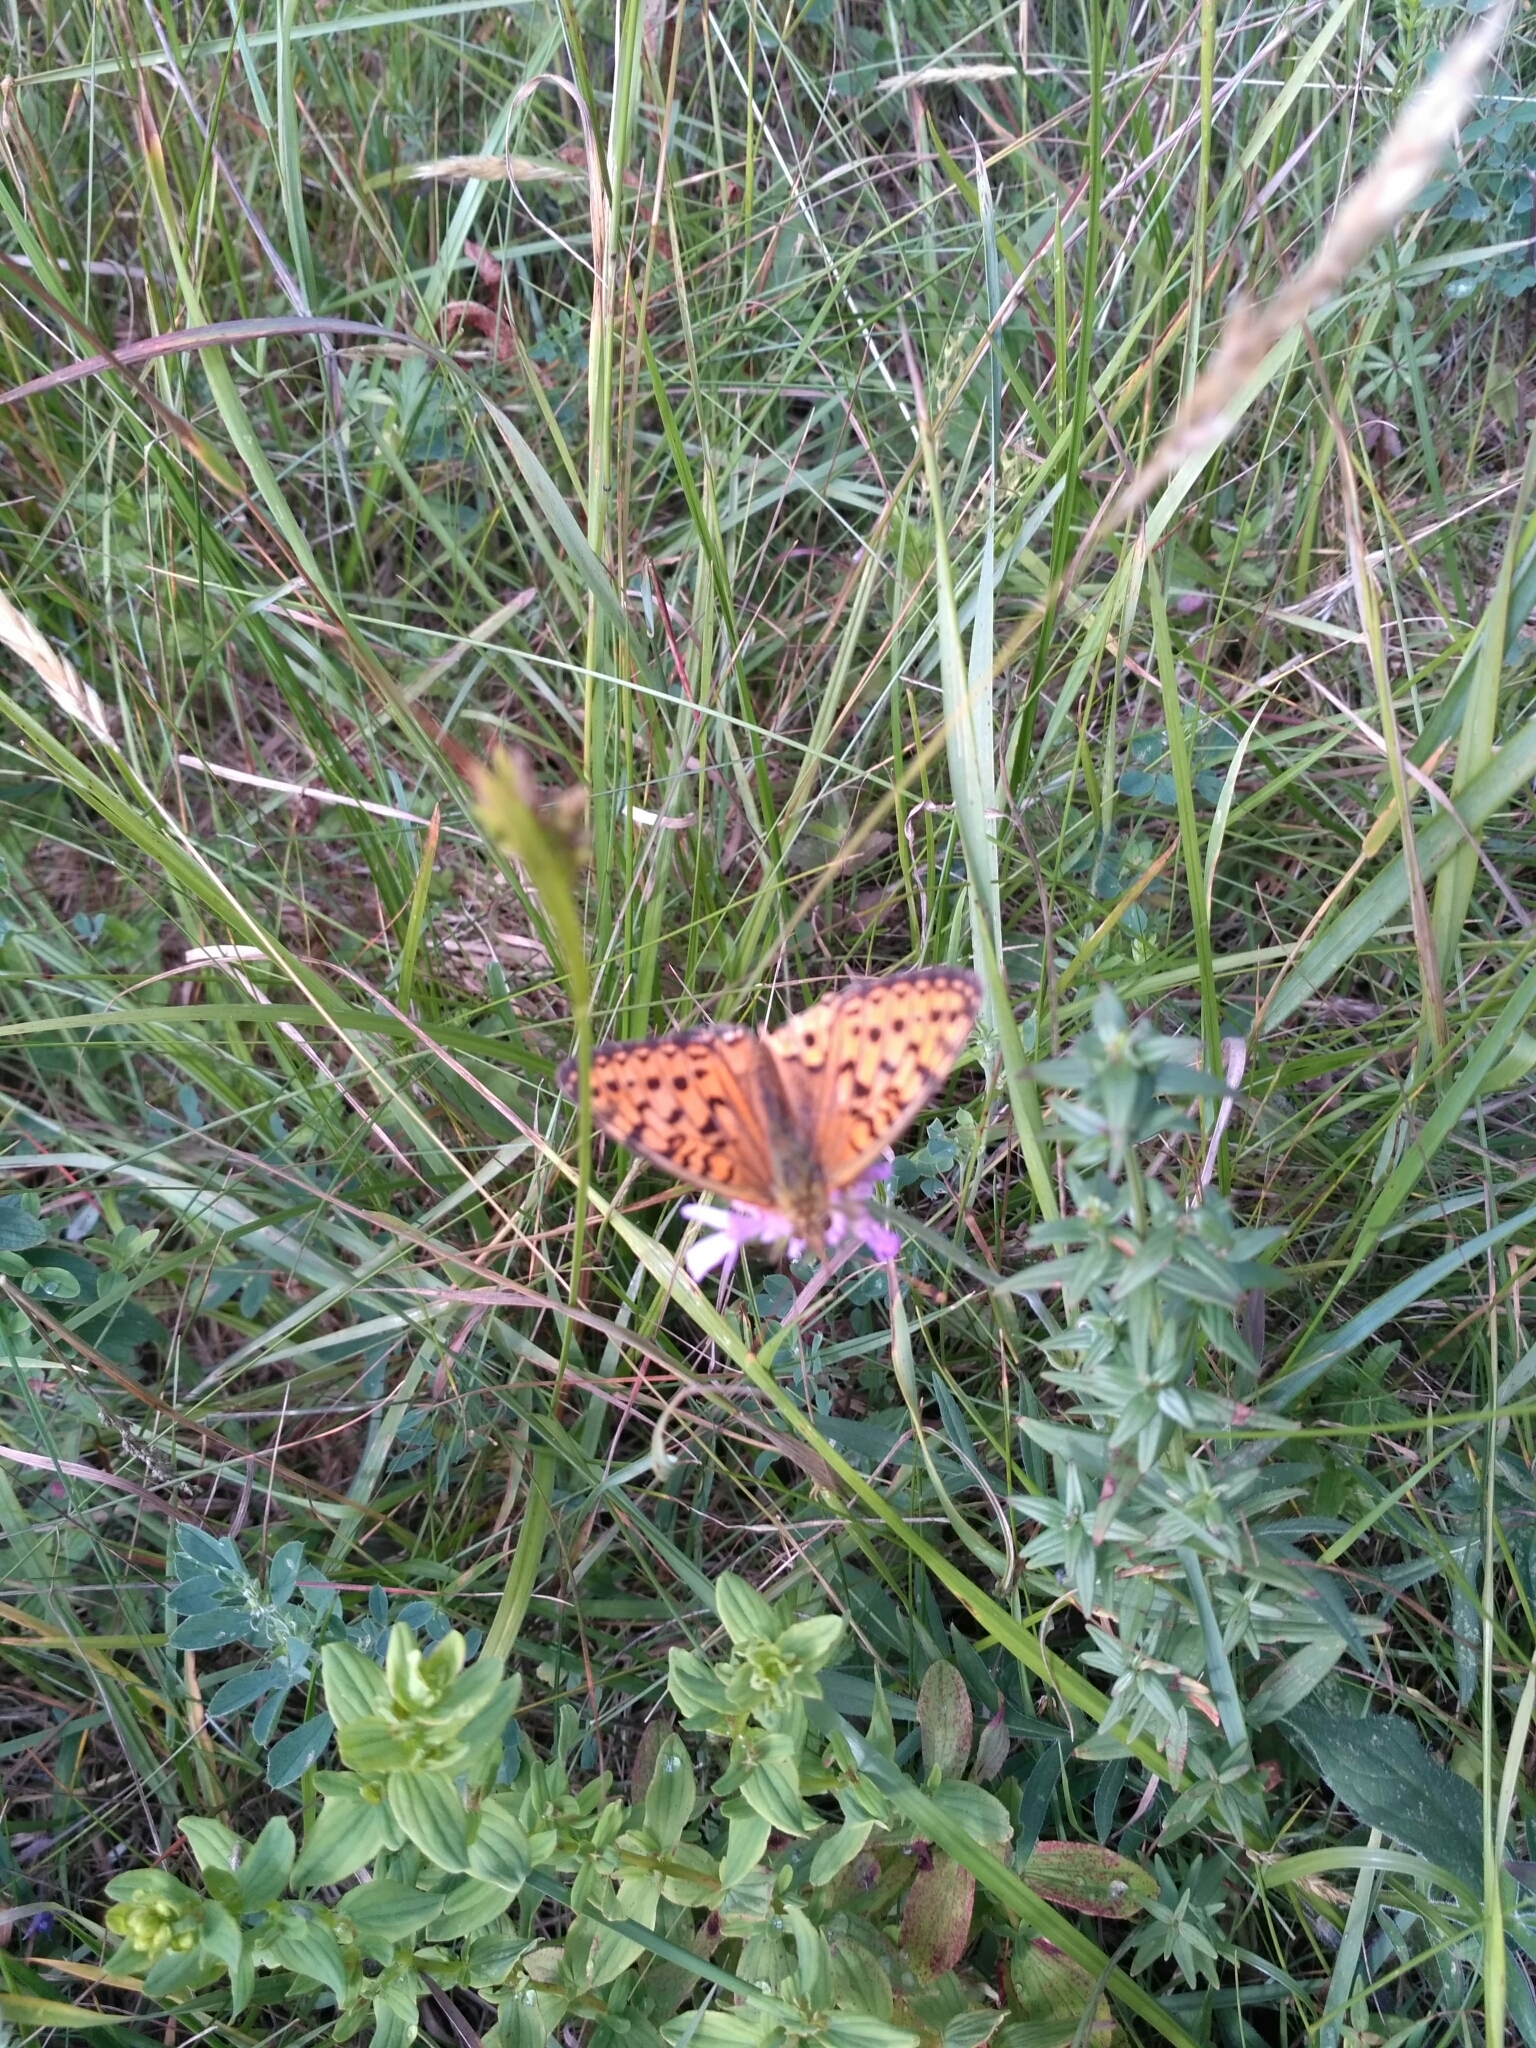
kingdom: Animalia
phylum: Arthropoda
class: Insecta
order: Lepidoptera
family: Nymphalidae
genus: Speyeria
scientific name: Speyeria aglaja
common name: Dark green fritillary
